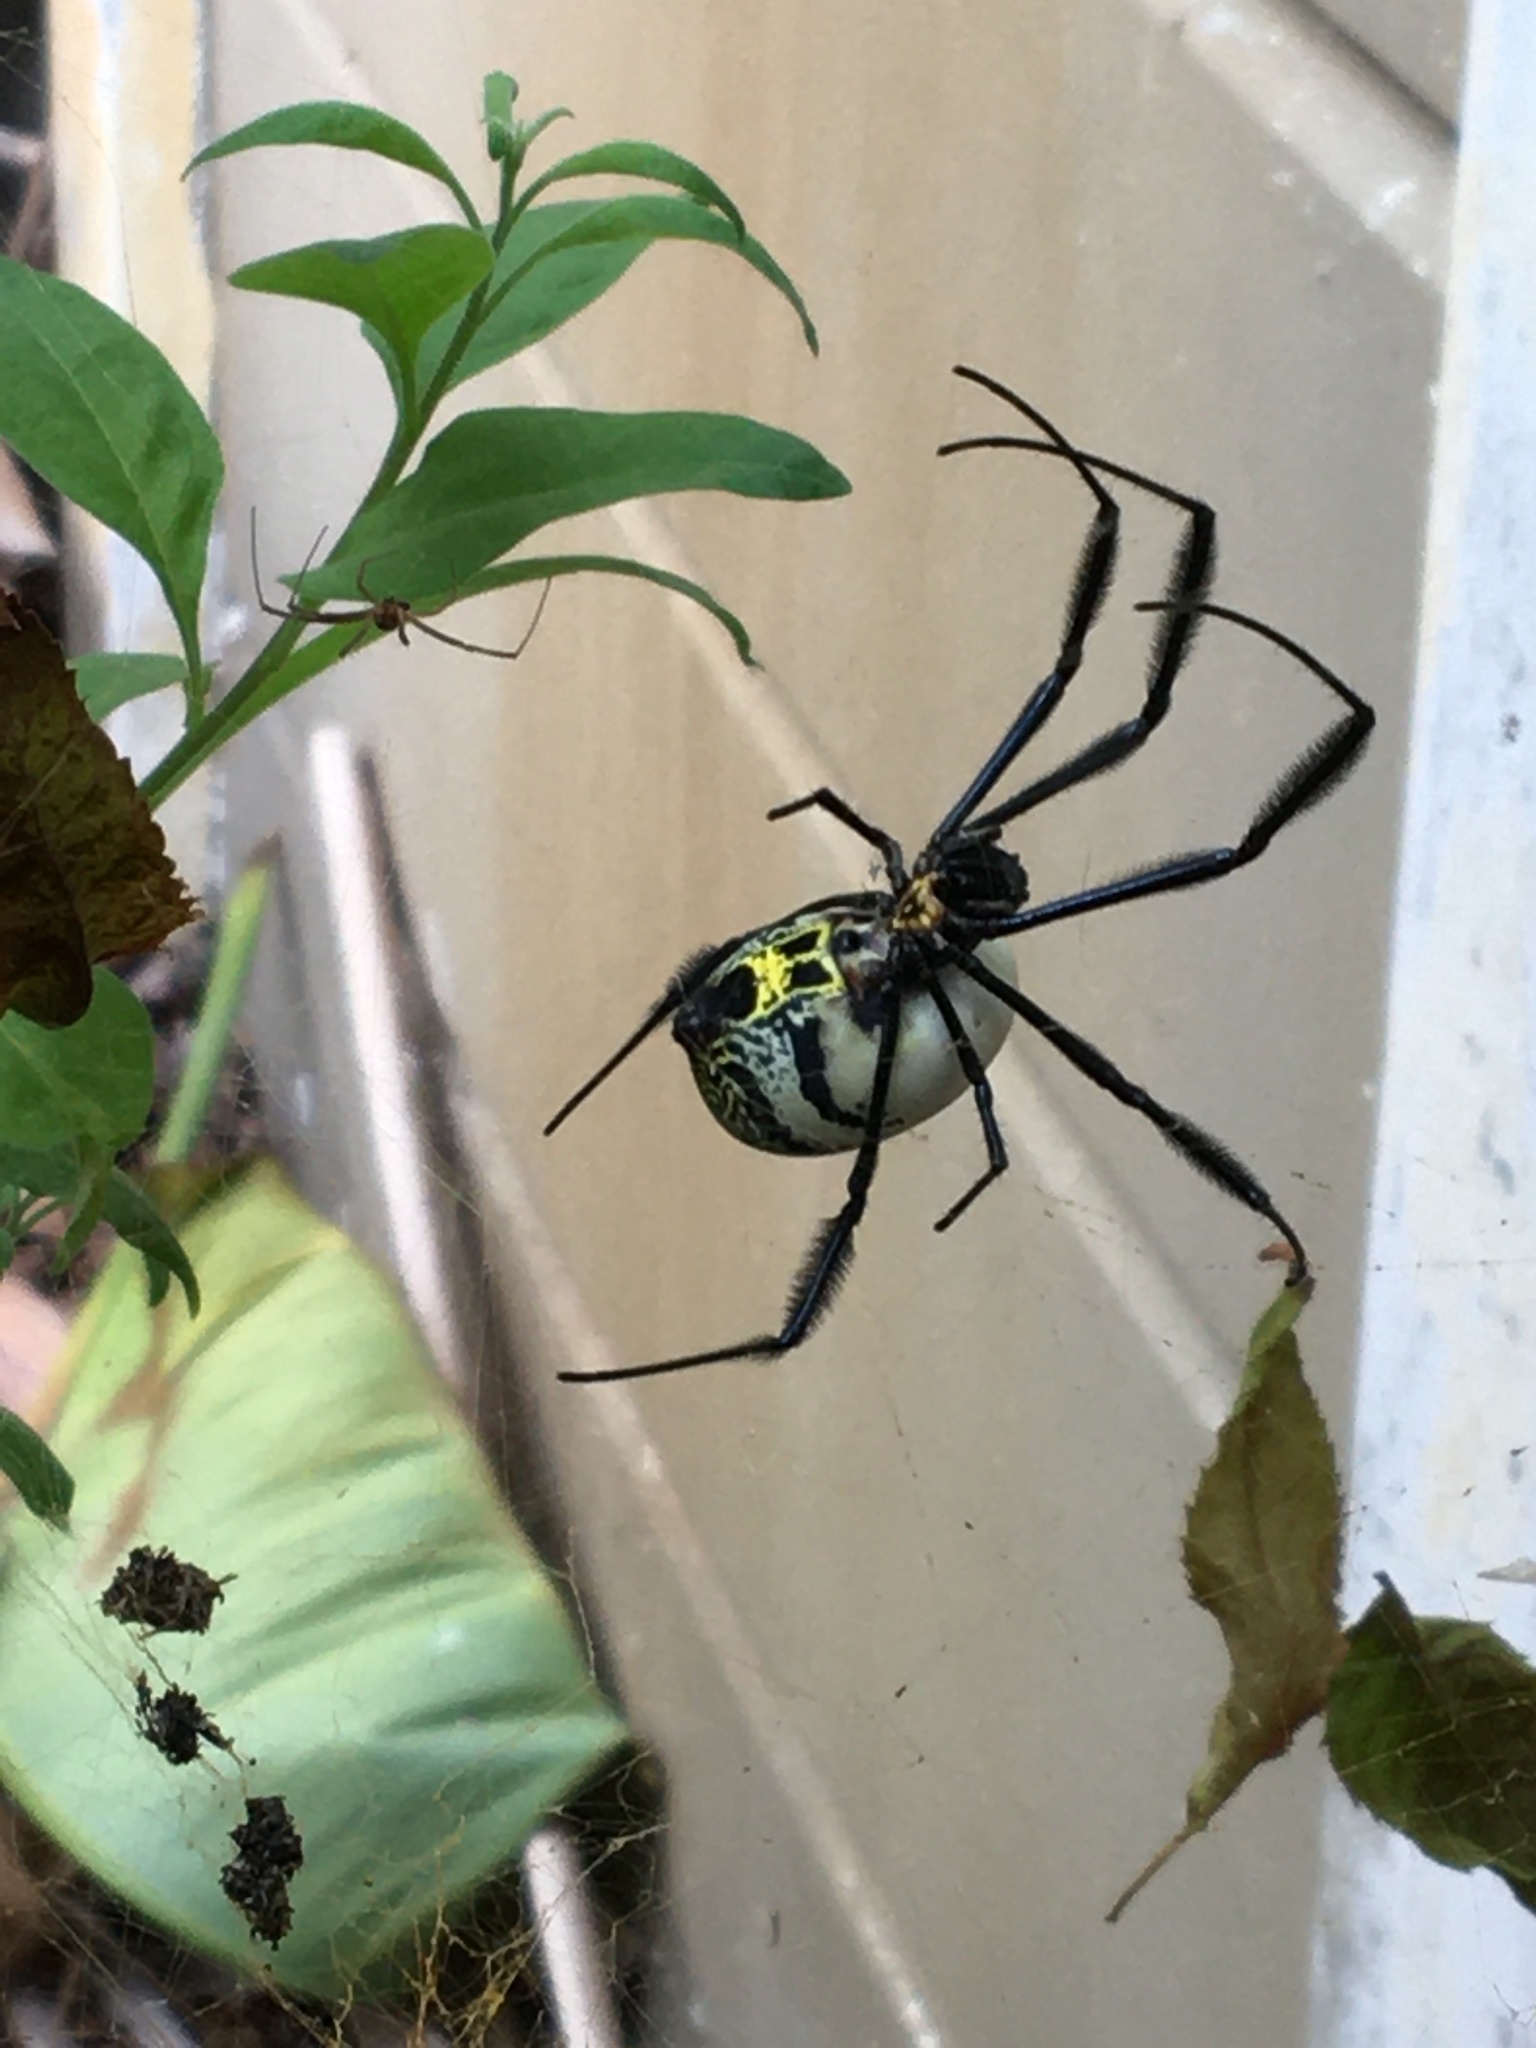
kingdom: Animalia
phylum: Arthropoda
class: Arachnida
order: Araneae
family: Araneidae
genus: Trichonephila
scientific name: Trichonephila fenestrata
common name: Hairy golden orb weaver
